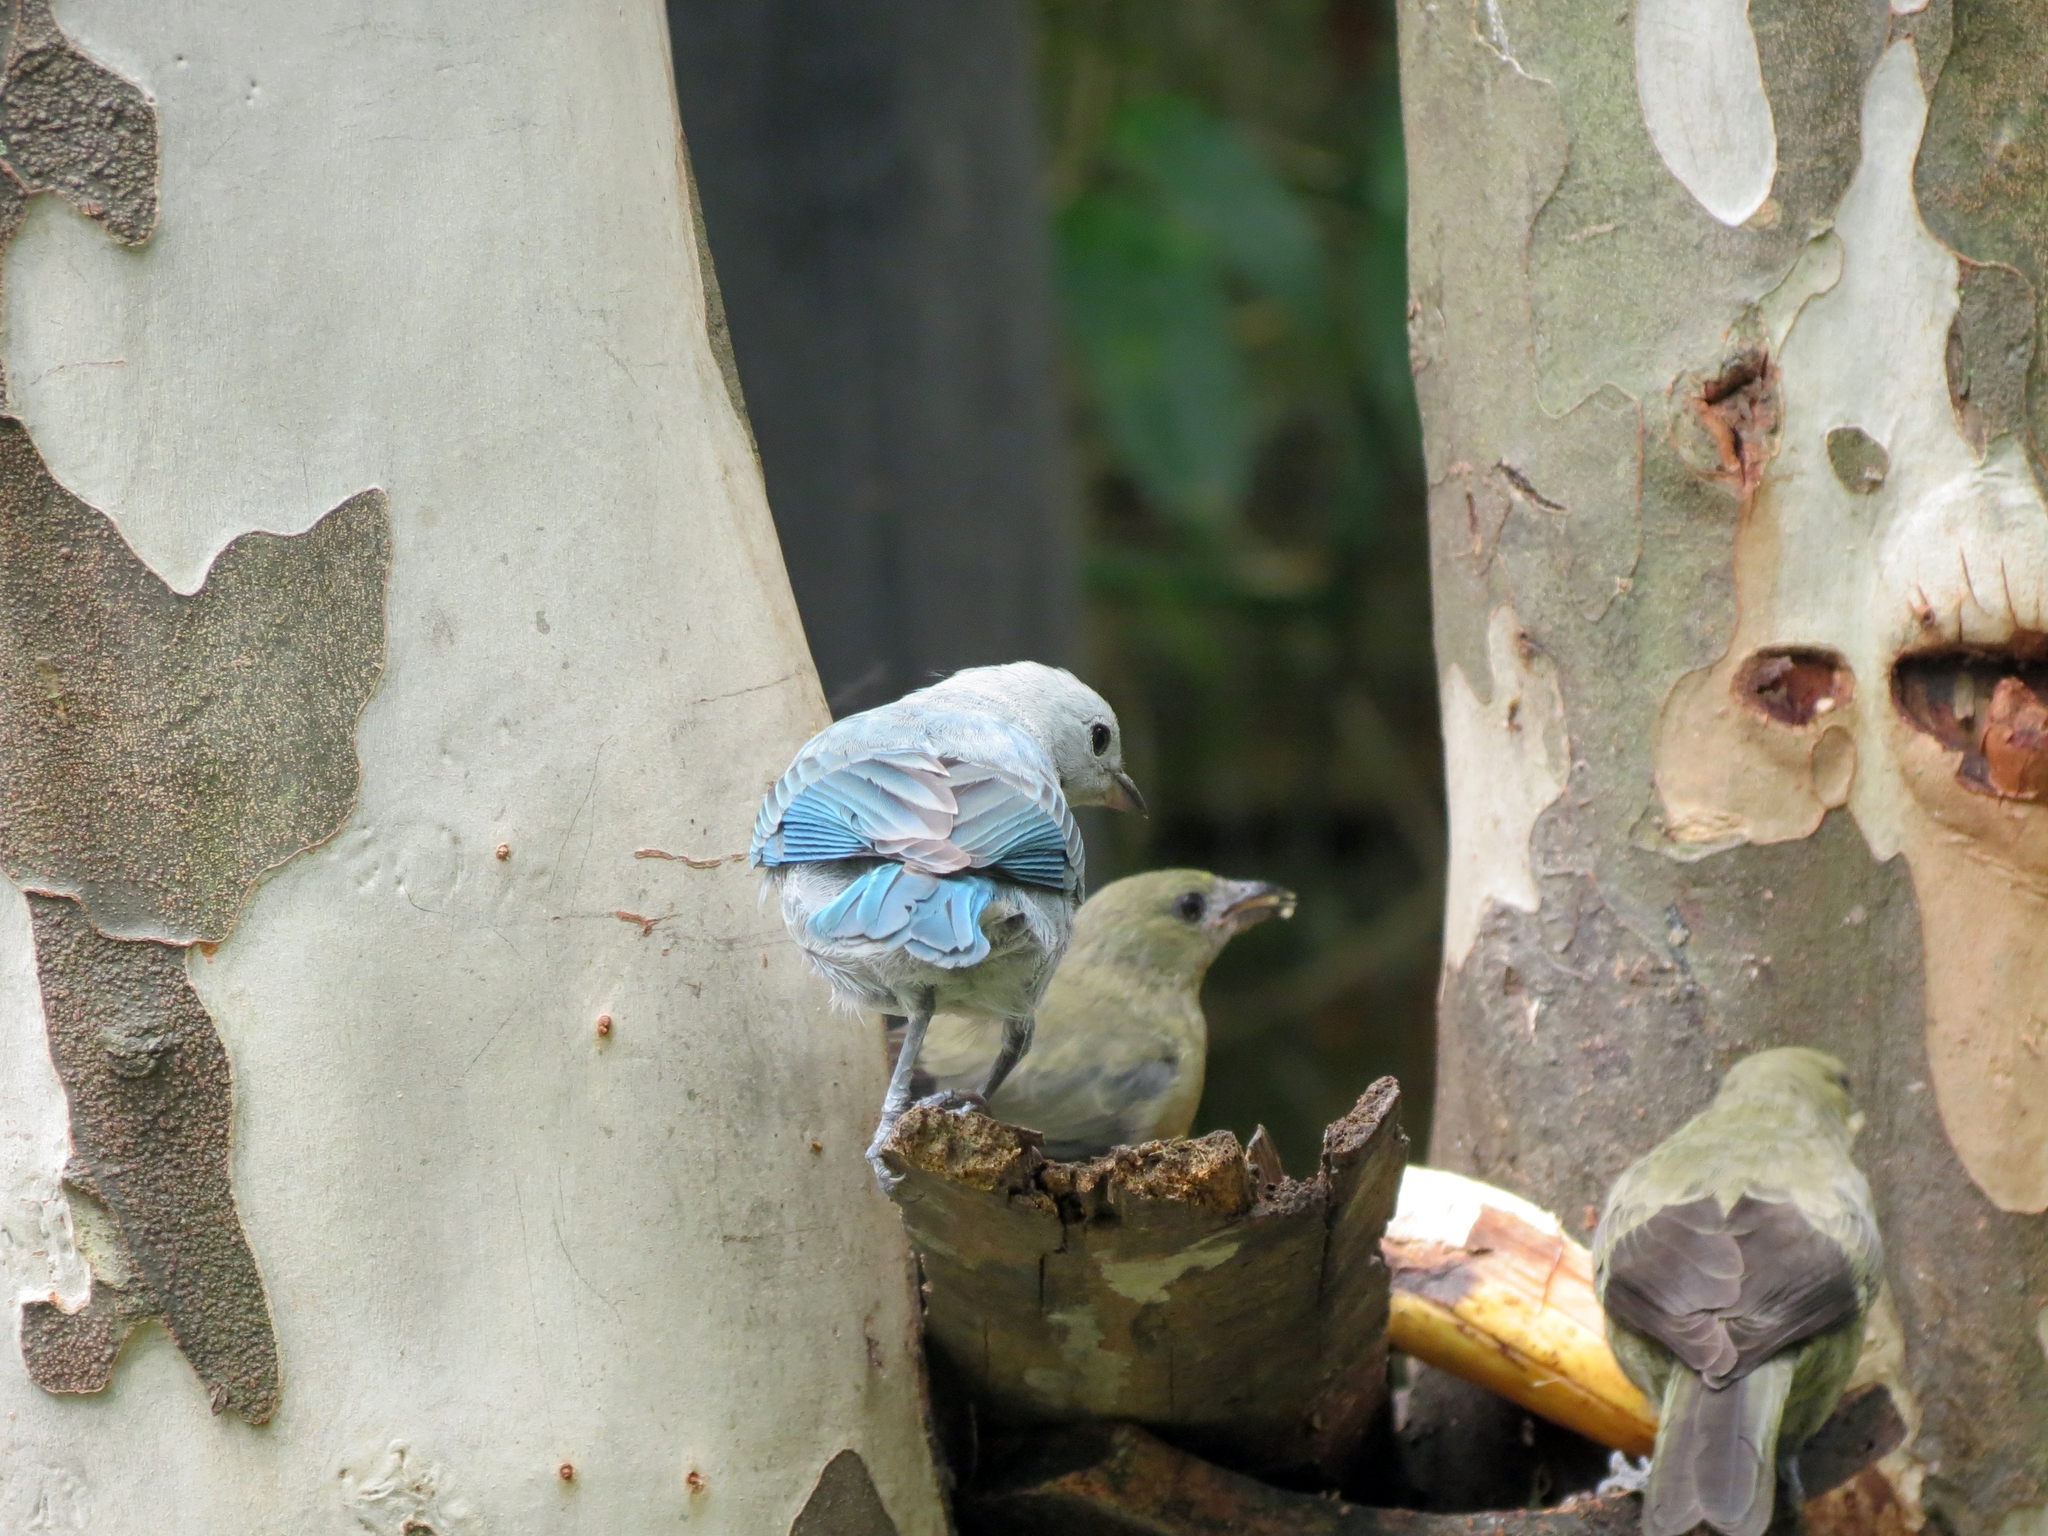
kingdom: Animalia
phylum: Chordata
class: Aves
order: Passeriformes
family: Thraupidae
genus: Thraupis
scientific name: Thraupis episcopus
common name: Blue-grey tanager
